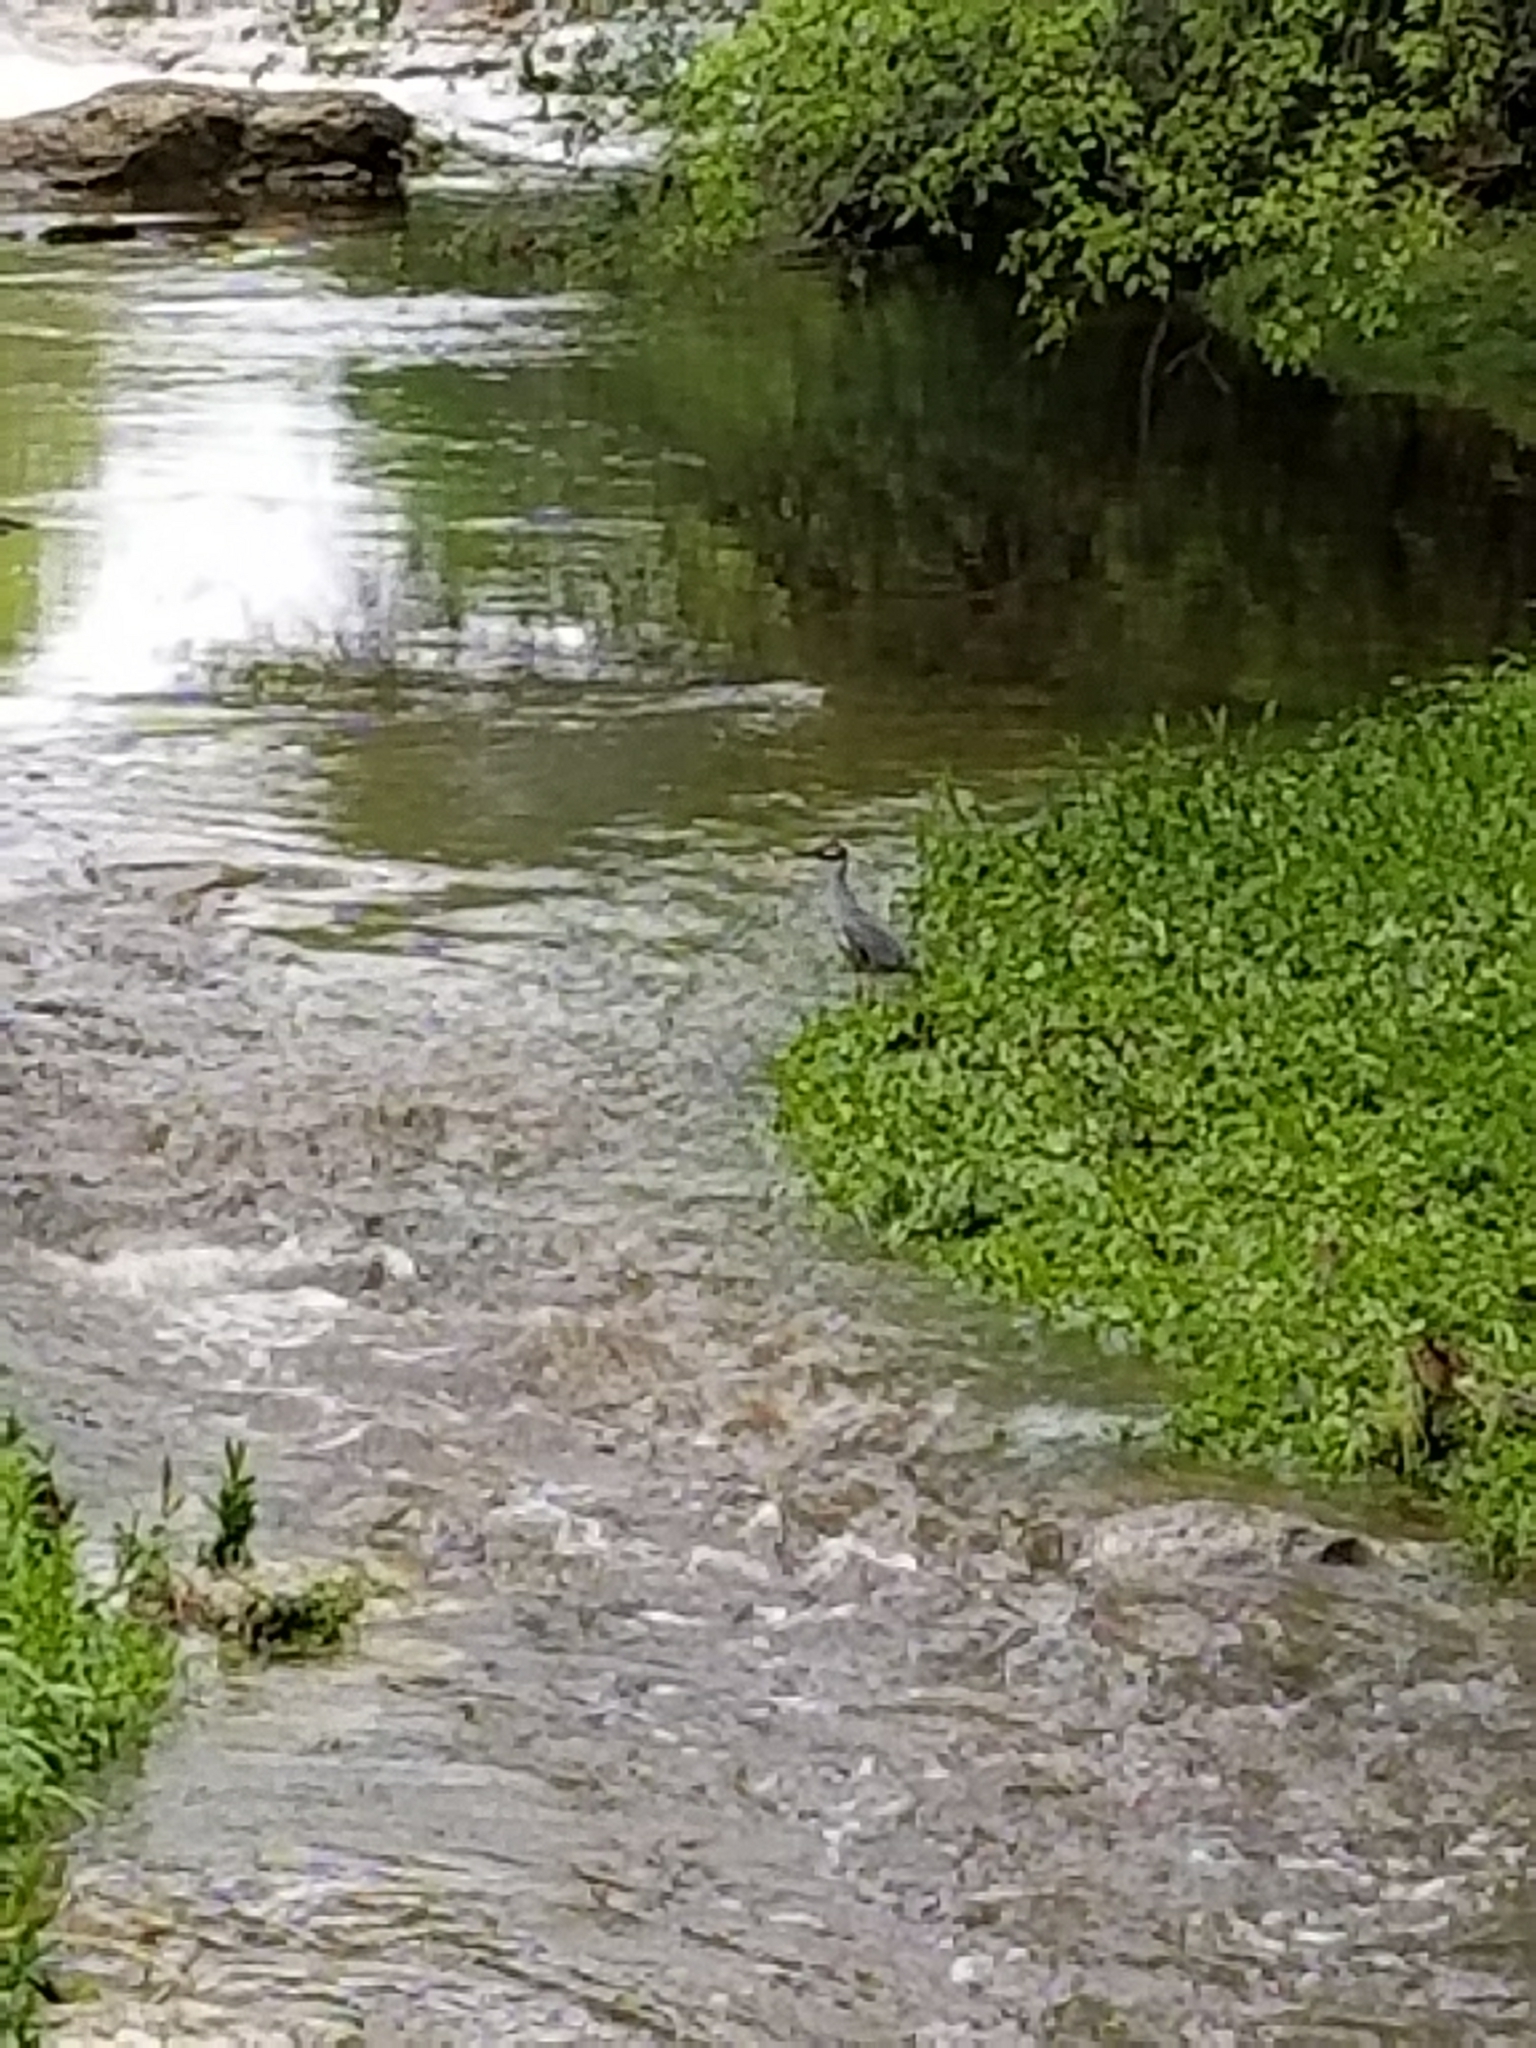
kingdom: Animalia
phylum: Chordata
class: Aves
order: Pelecaniformes
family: Ardeidae
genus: Nyctanassa
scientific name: Nyctanassa violacea
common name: Yellow-crowned night heron
